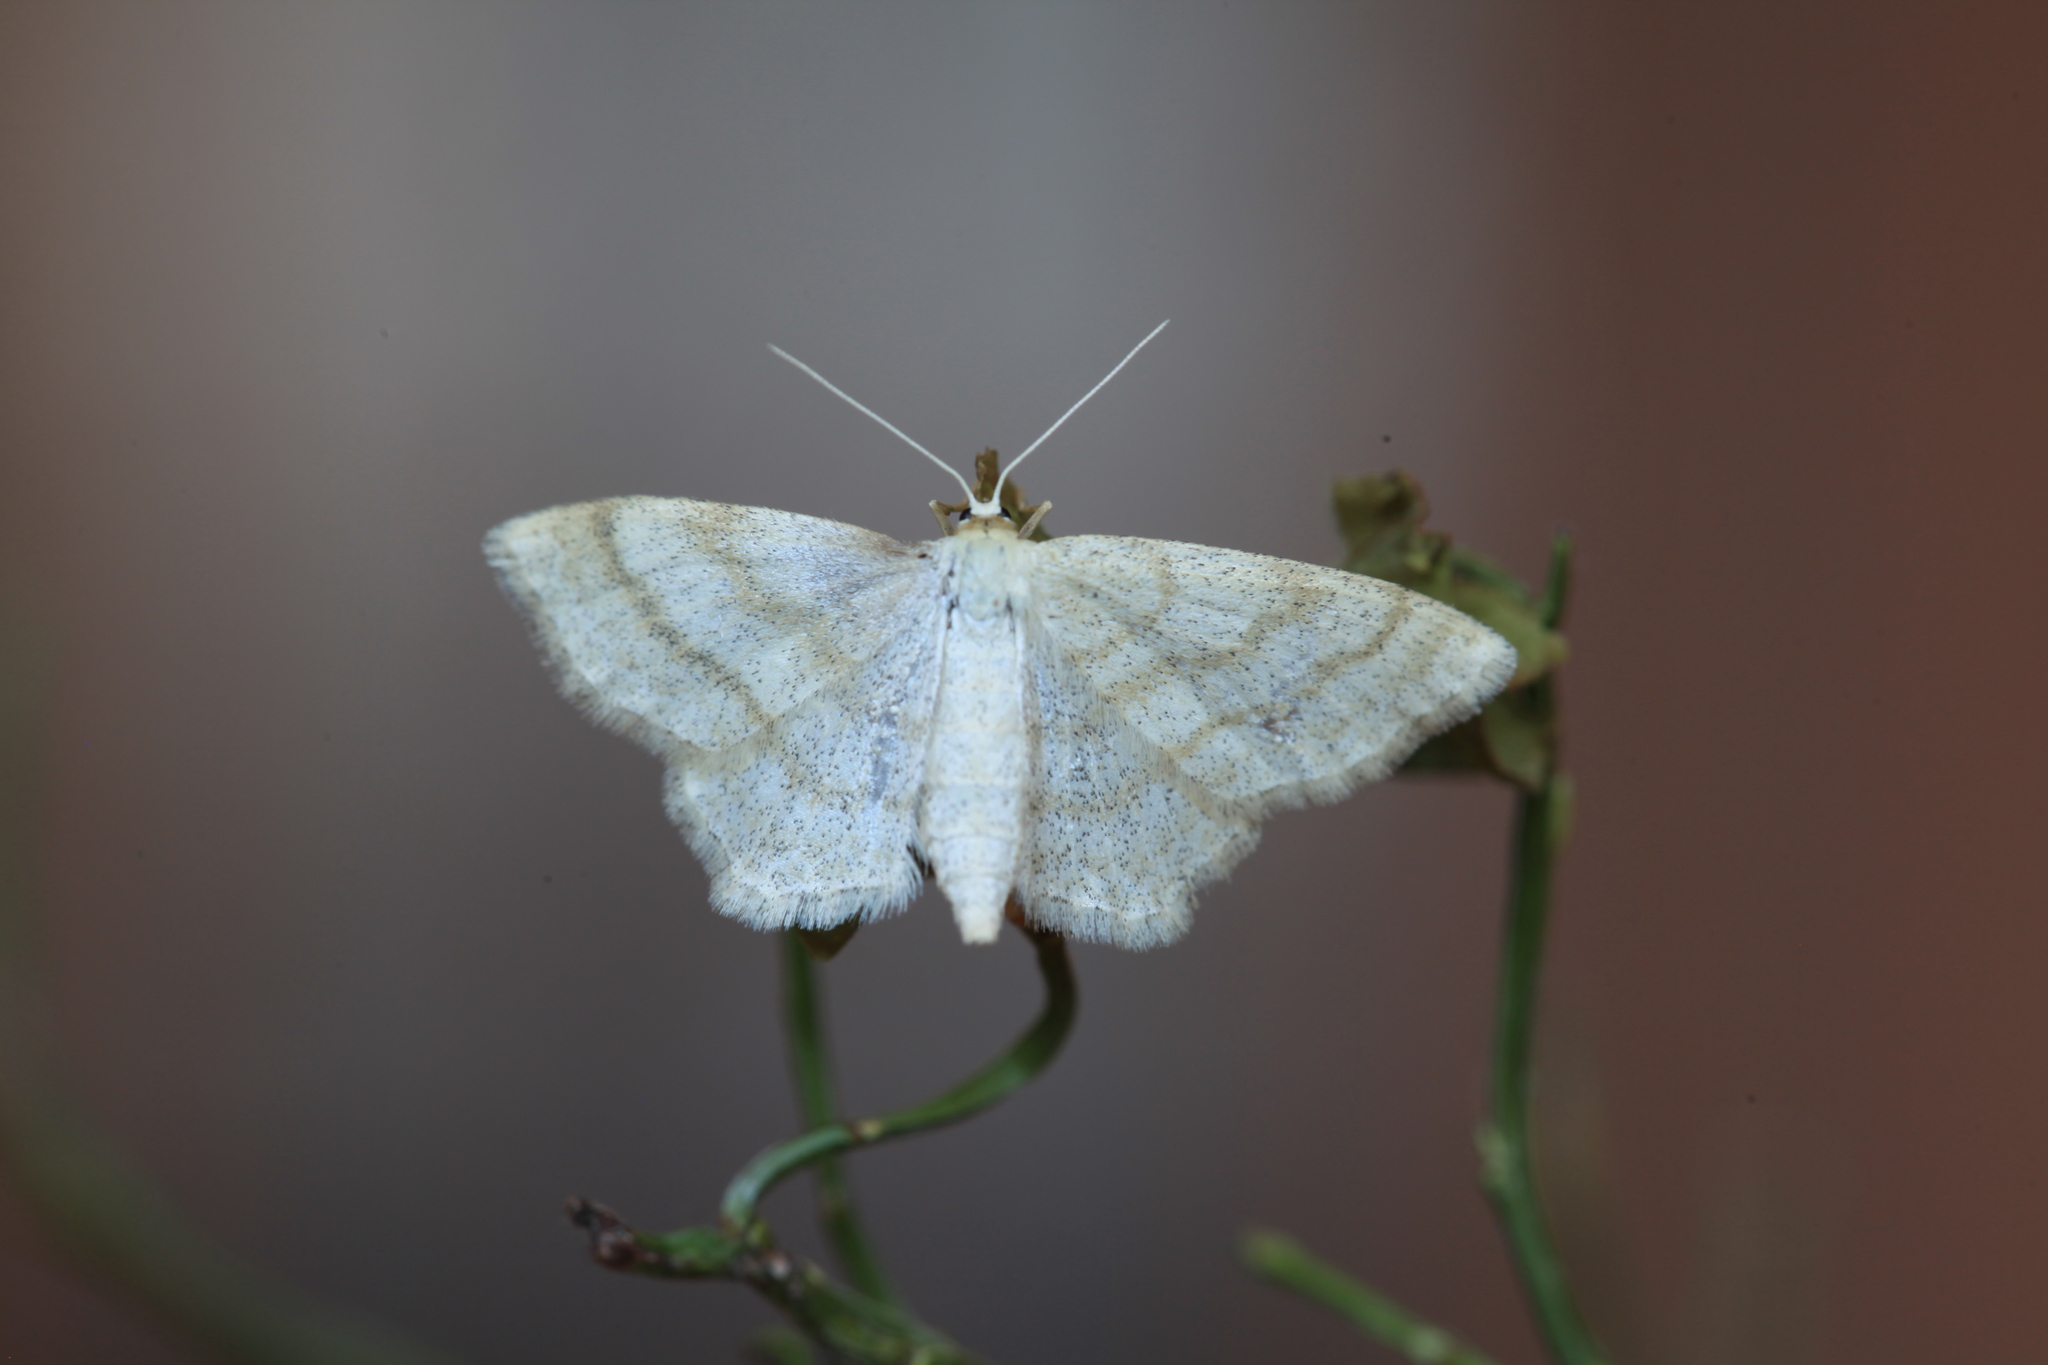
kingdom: Animalia
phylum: Arthropoda
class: Insecta
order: Lepidoptera
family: Geometridae
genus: Scopula
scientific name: Scopula ternata
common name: Smoky wave
